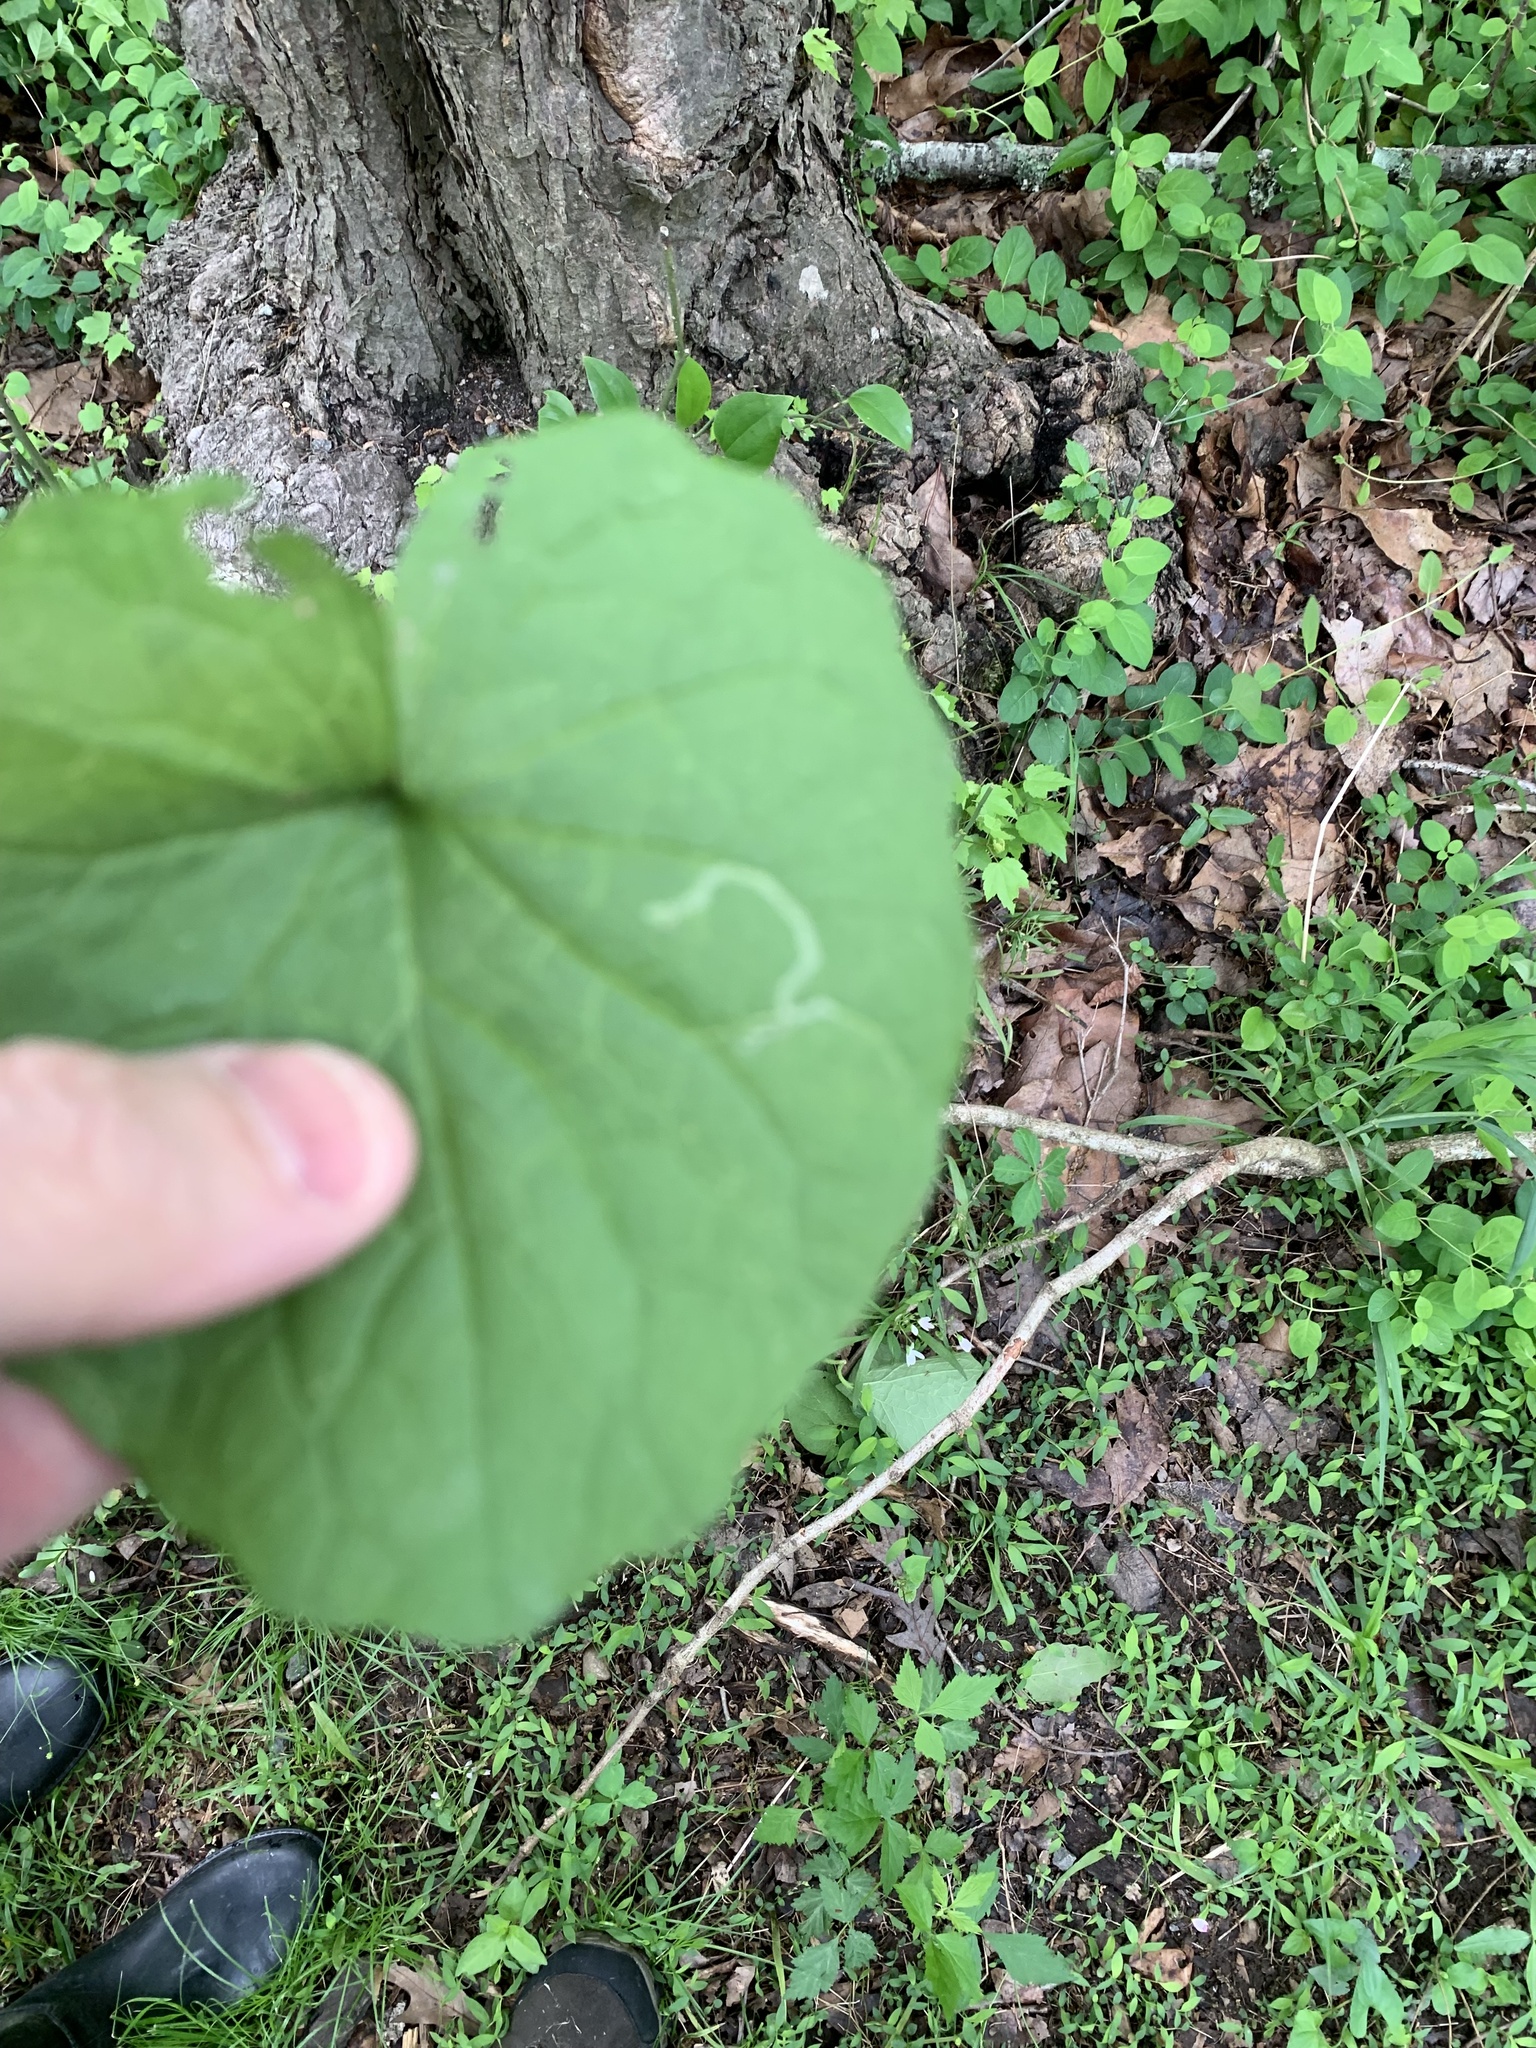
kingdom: Animalia
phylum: Arthropoda
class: Insecta
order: Diptera
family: Agromyzidae
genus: Liriomyza
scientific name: Liriomyza brassicae
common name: Serpentine leaf miner
